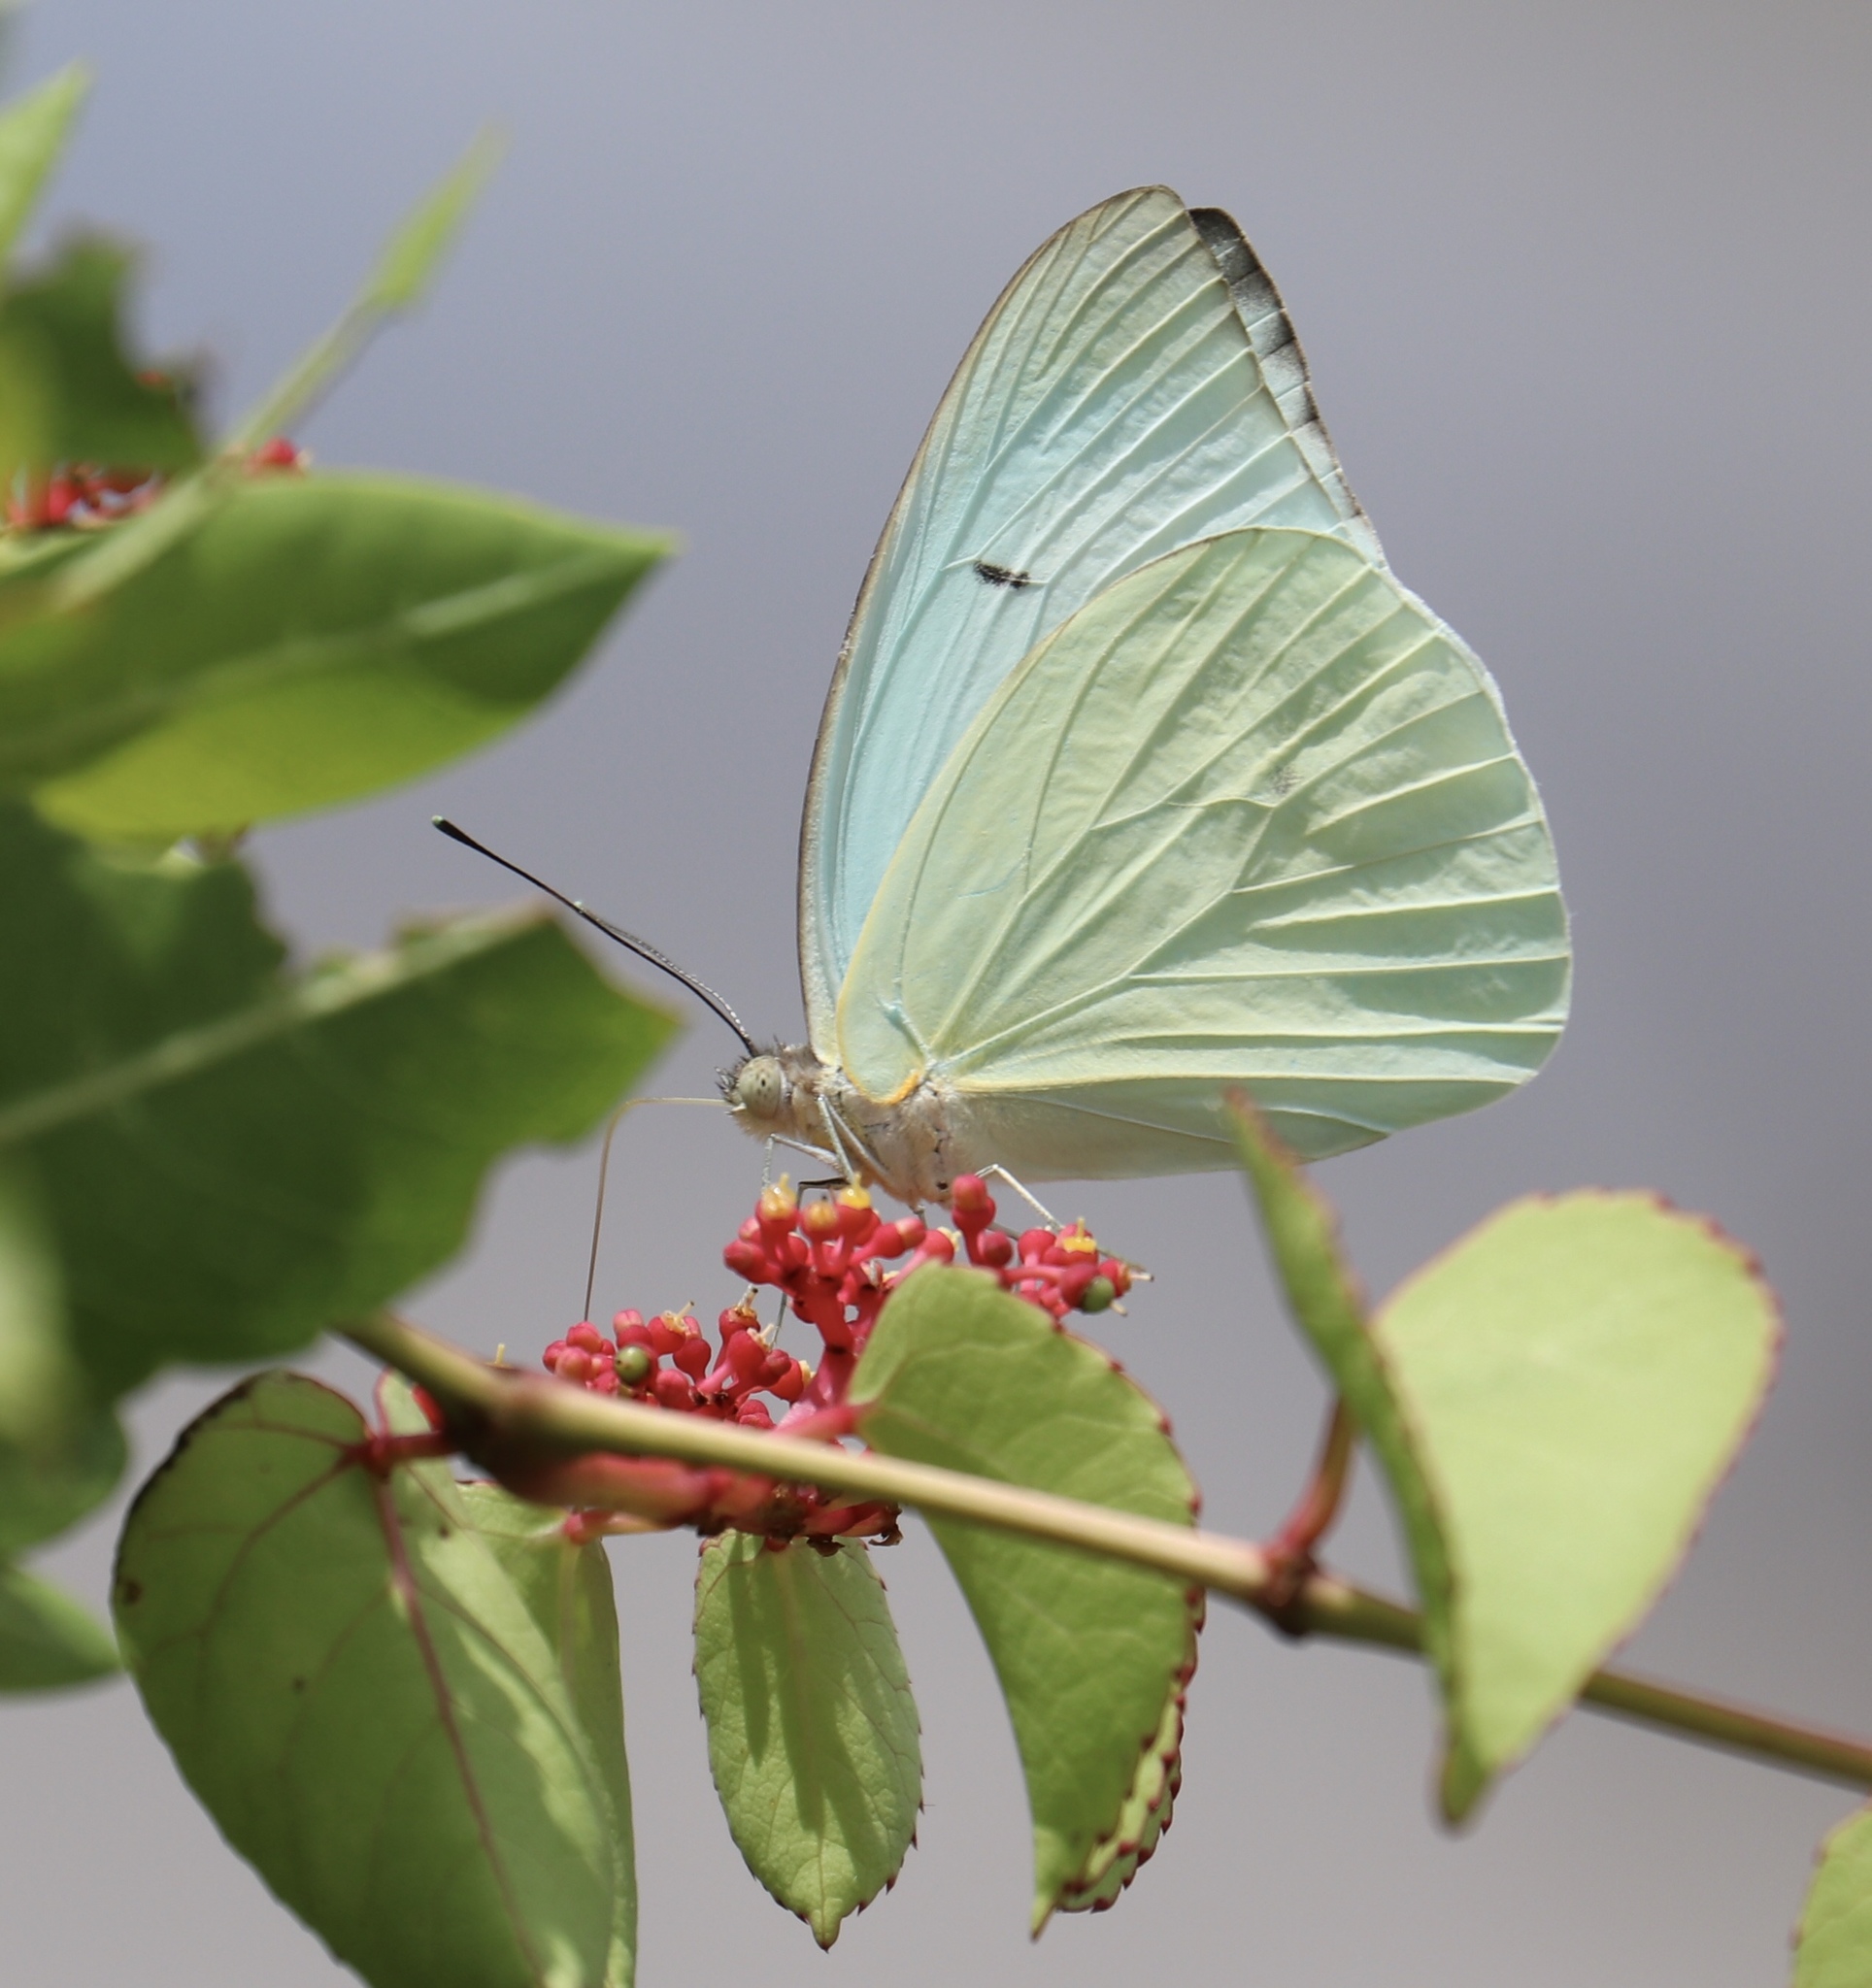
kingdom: Animalia
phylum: Arthropoda
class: Insecta
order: Lepidoptera
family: Pieridae
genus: Leptophobia
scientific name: Leptophobia aripa
